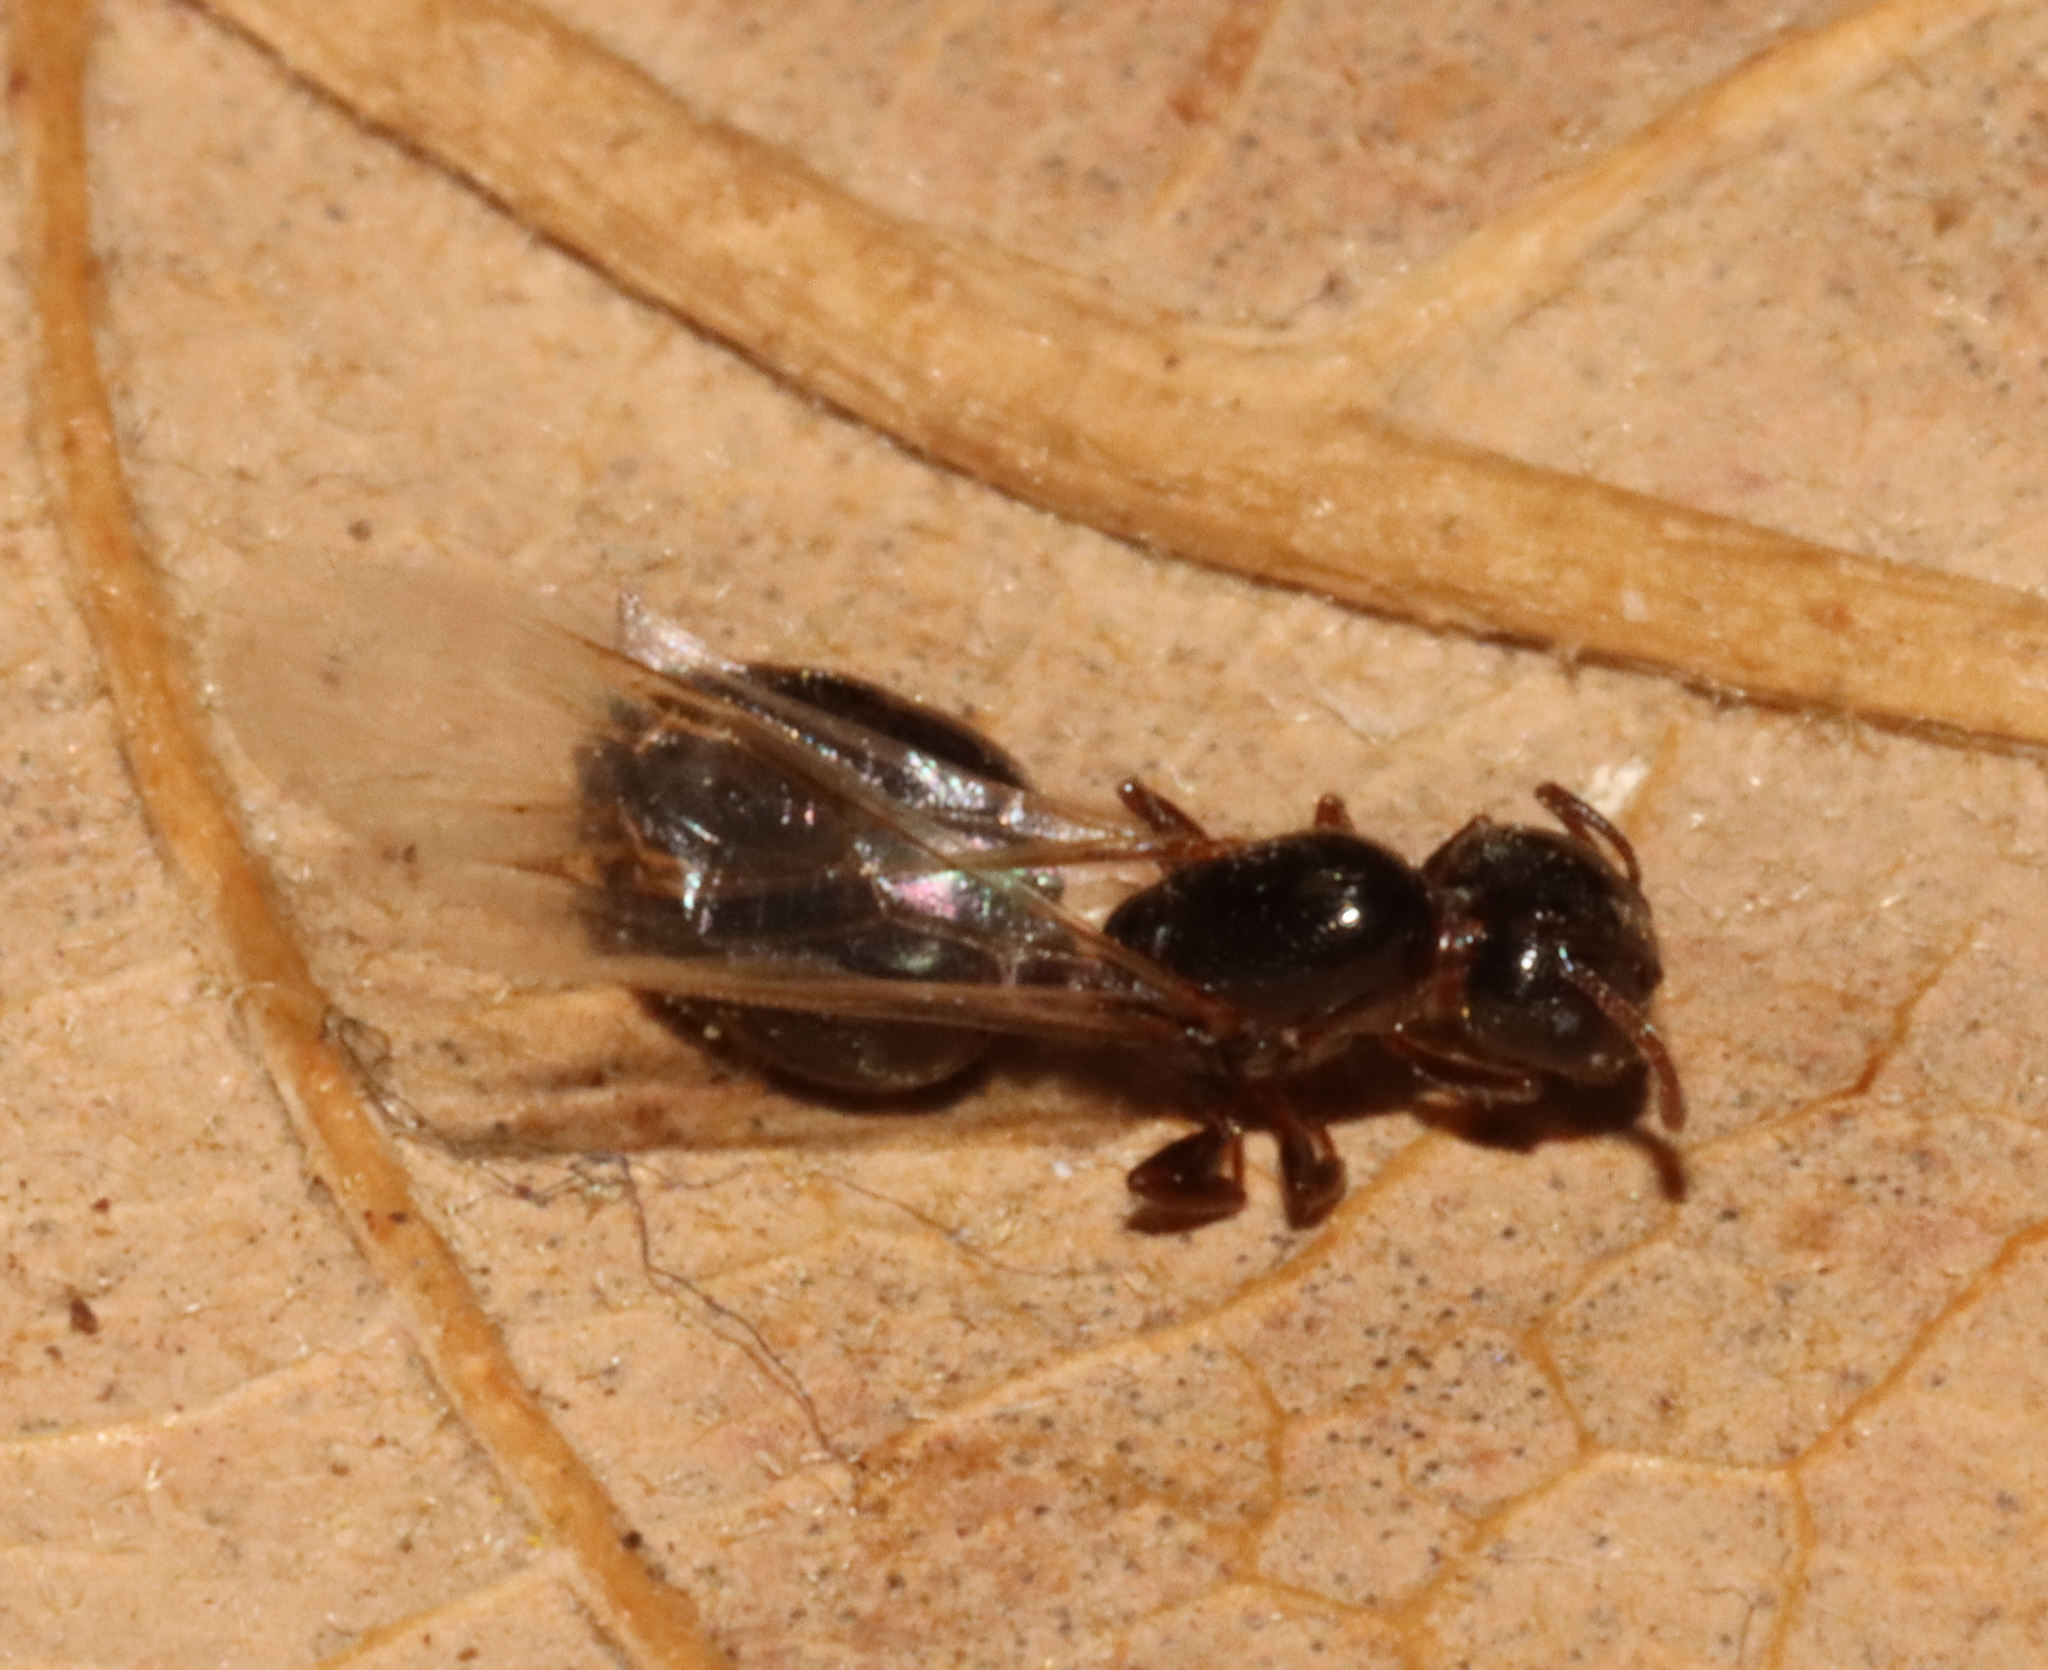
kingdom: Animalia
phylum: Arthropoda
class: Insecta
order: Hymenoptera
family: Formicidae
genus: Crematogaster
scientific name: Crematogaster ashmeadi
